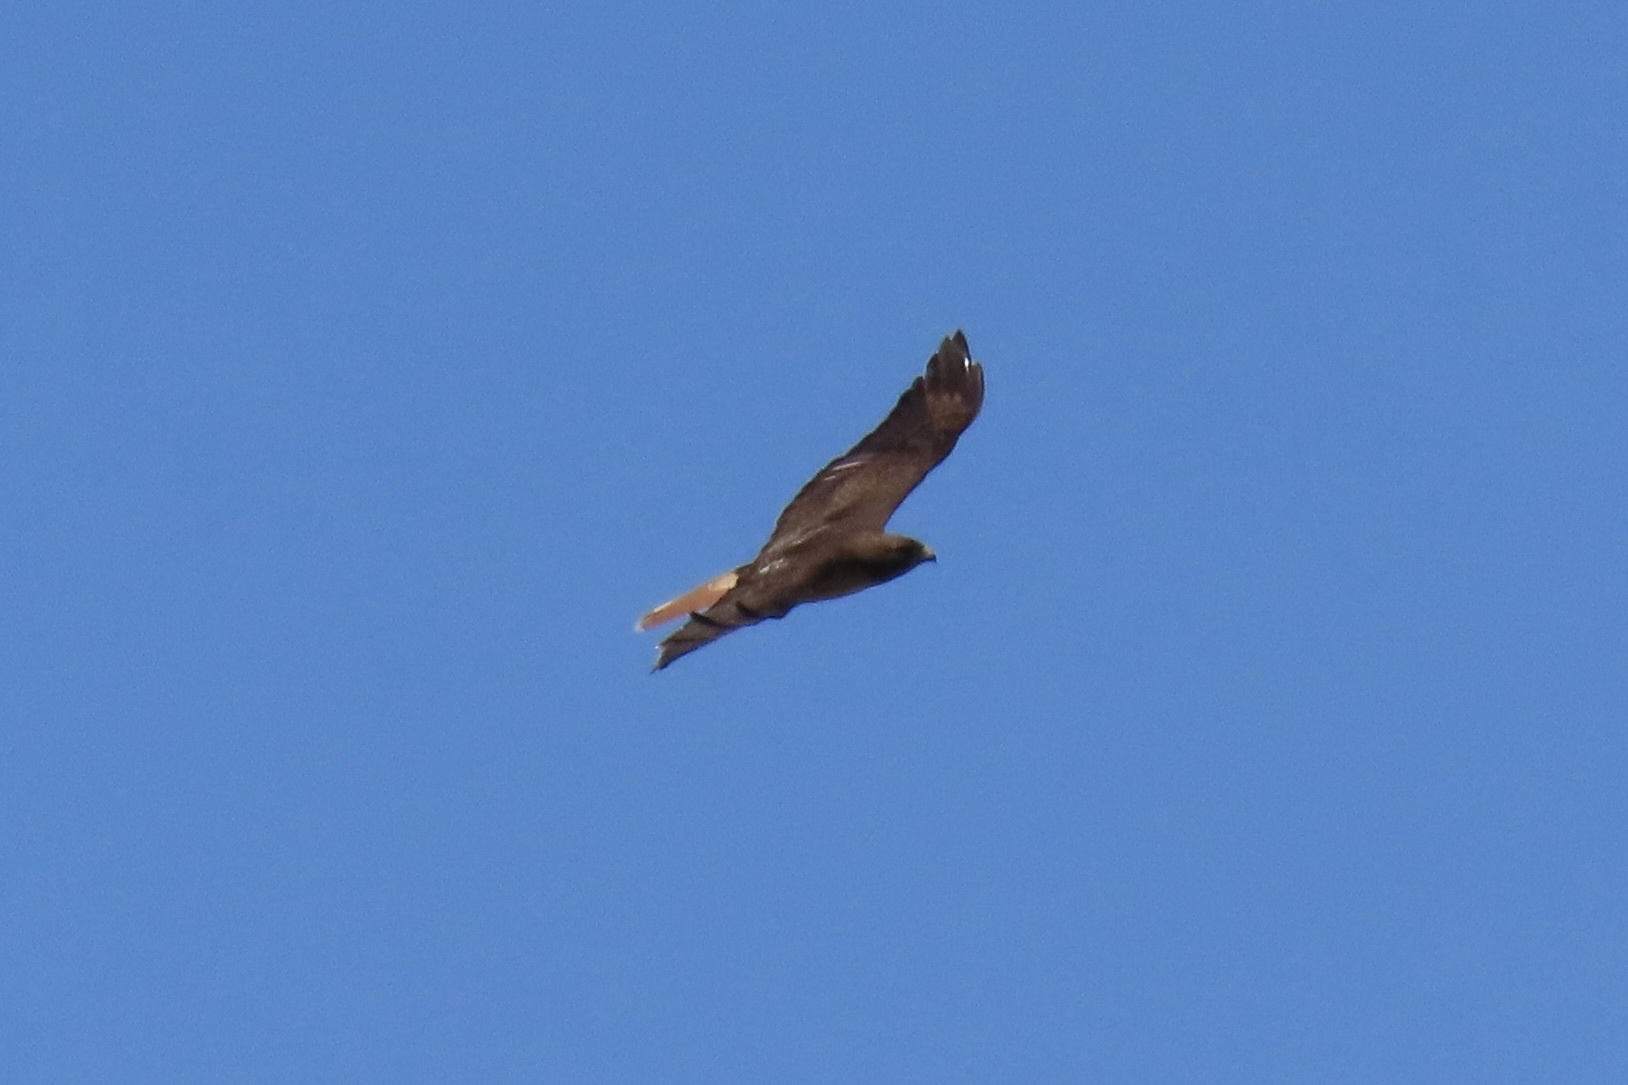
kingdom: Animalia
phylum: Chordata
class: Aves
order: Accipitriformes
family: Accipitridae
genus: Buteo
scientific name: Buteo jamaicensis
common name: Red-tailed hawk
